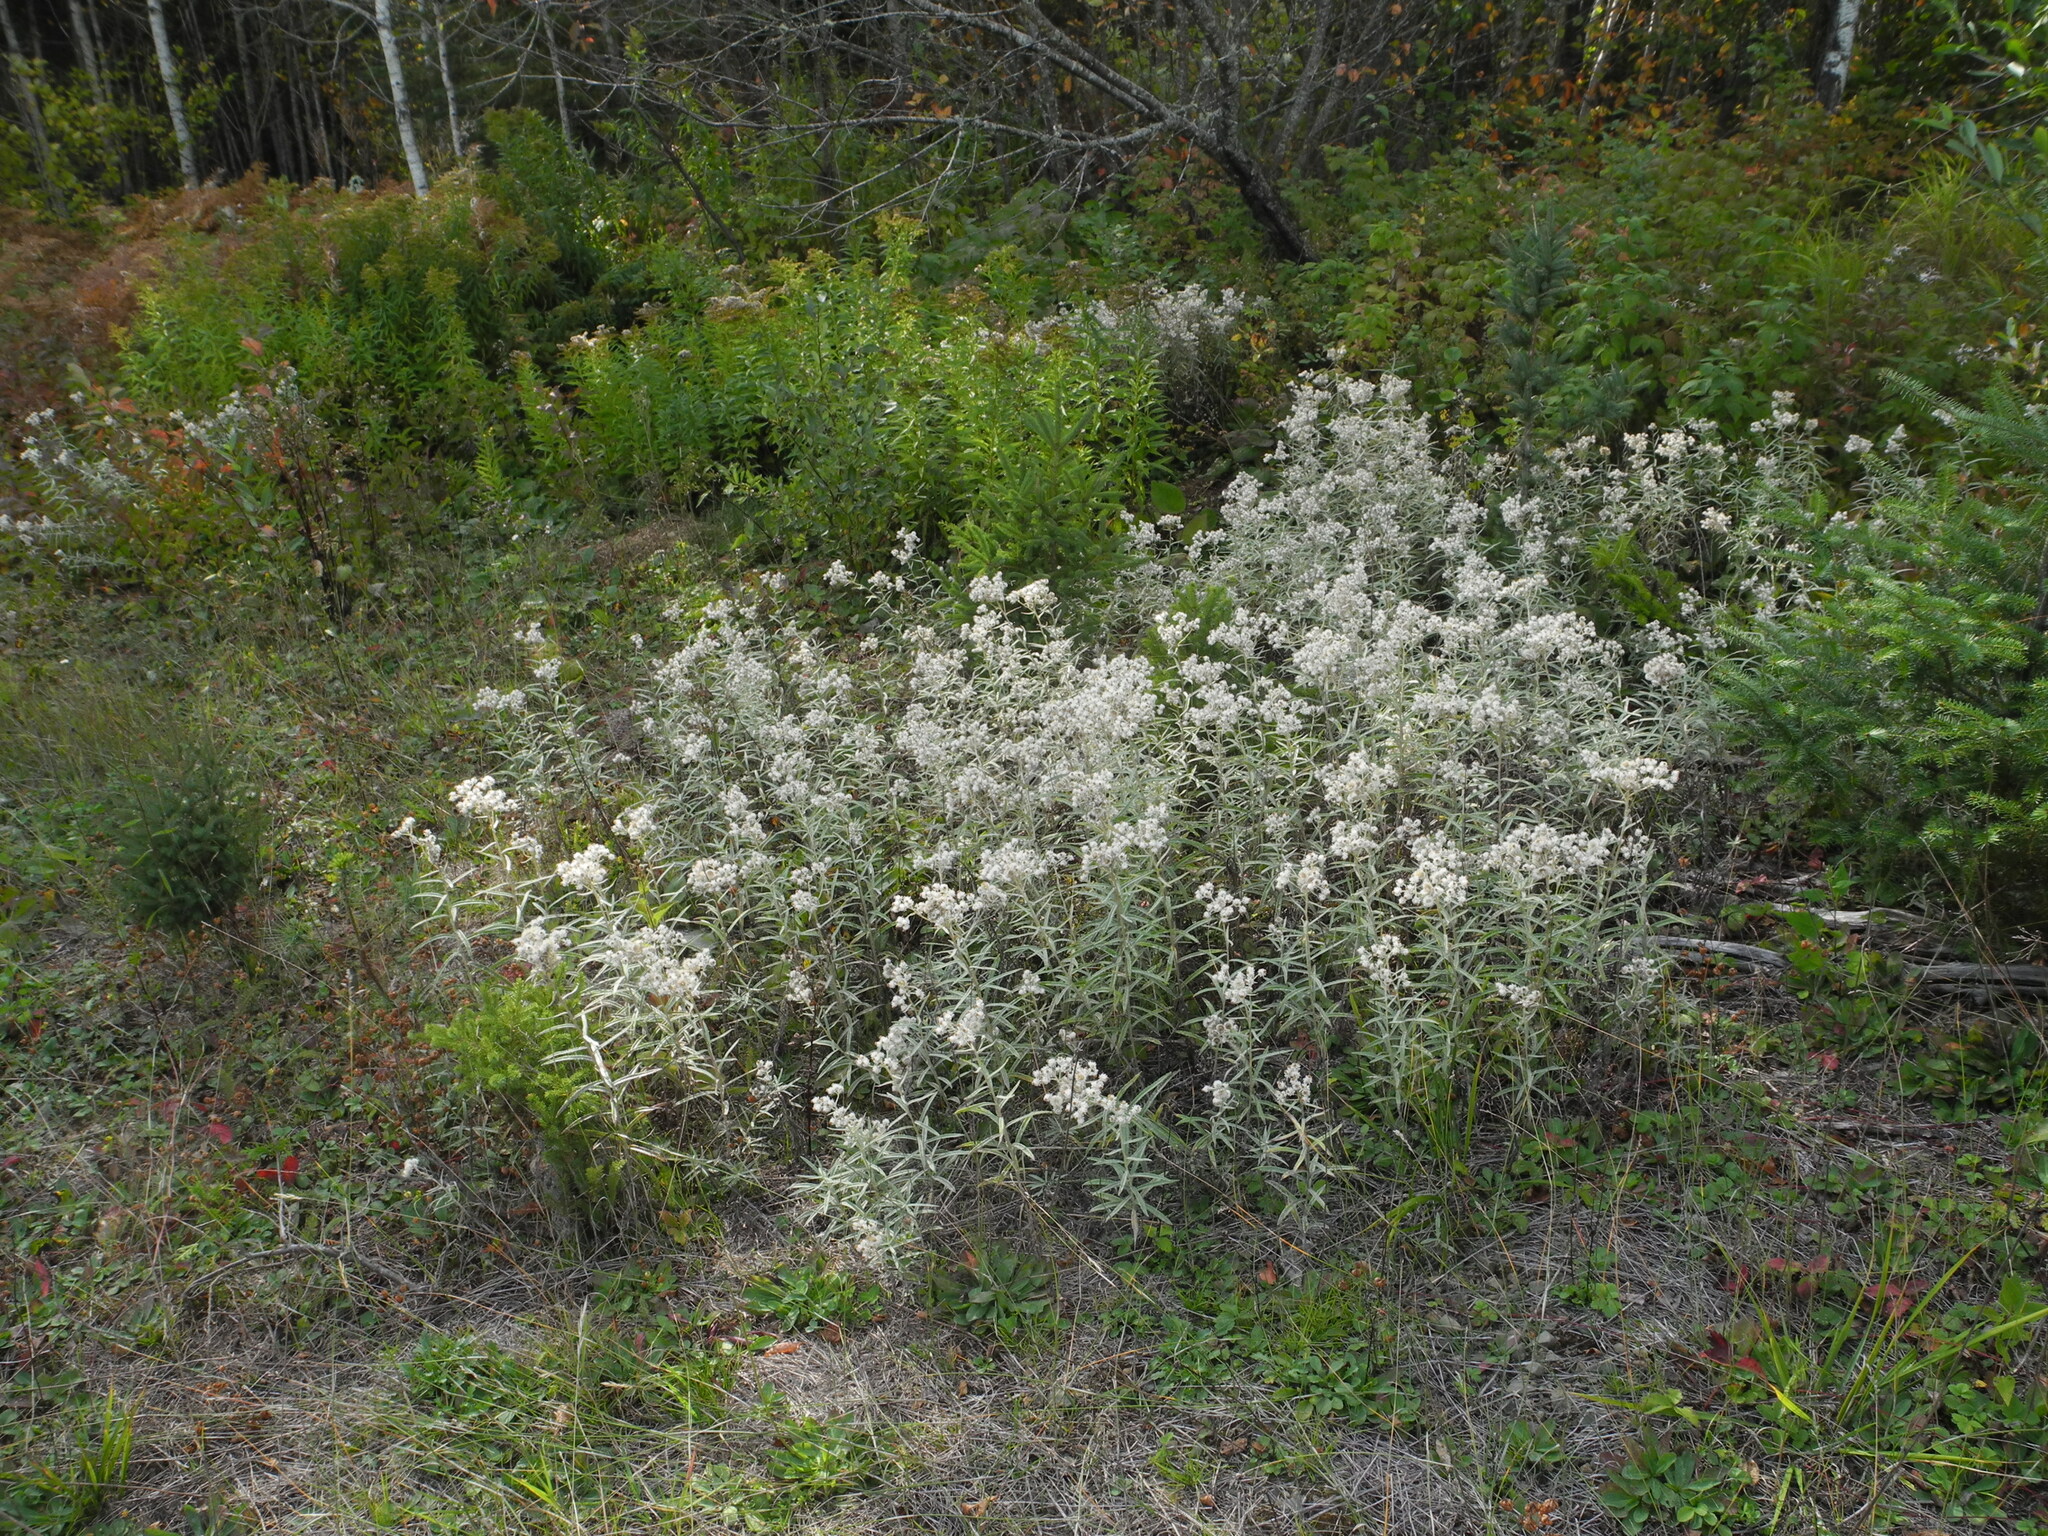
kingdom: Plantae
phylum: Tracheophyta
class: Magnoliopsida
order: Asterales
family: Asteraceae
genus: Anaphalis
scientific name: Anaphalis margaritacea
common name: Pearly everlasting
